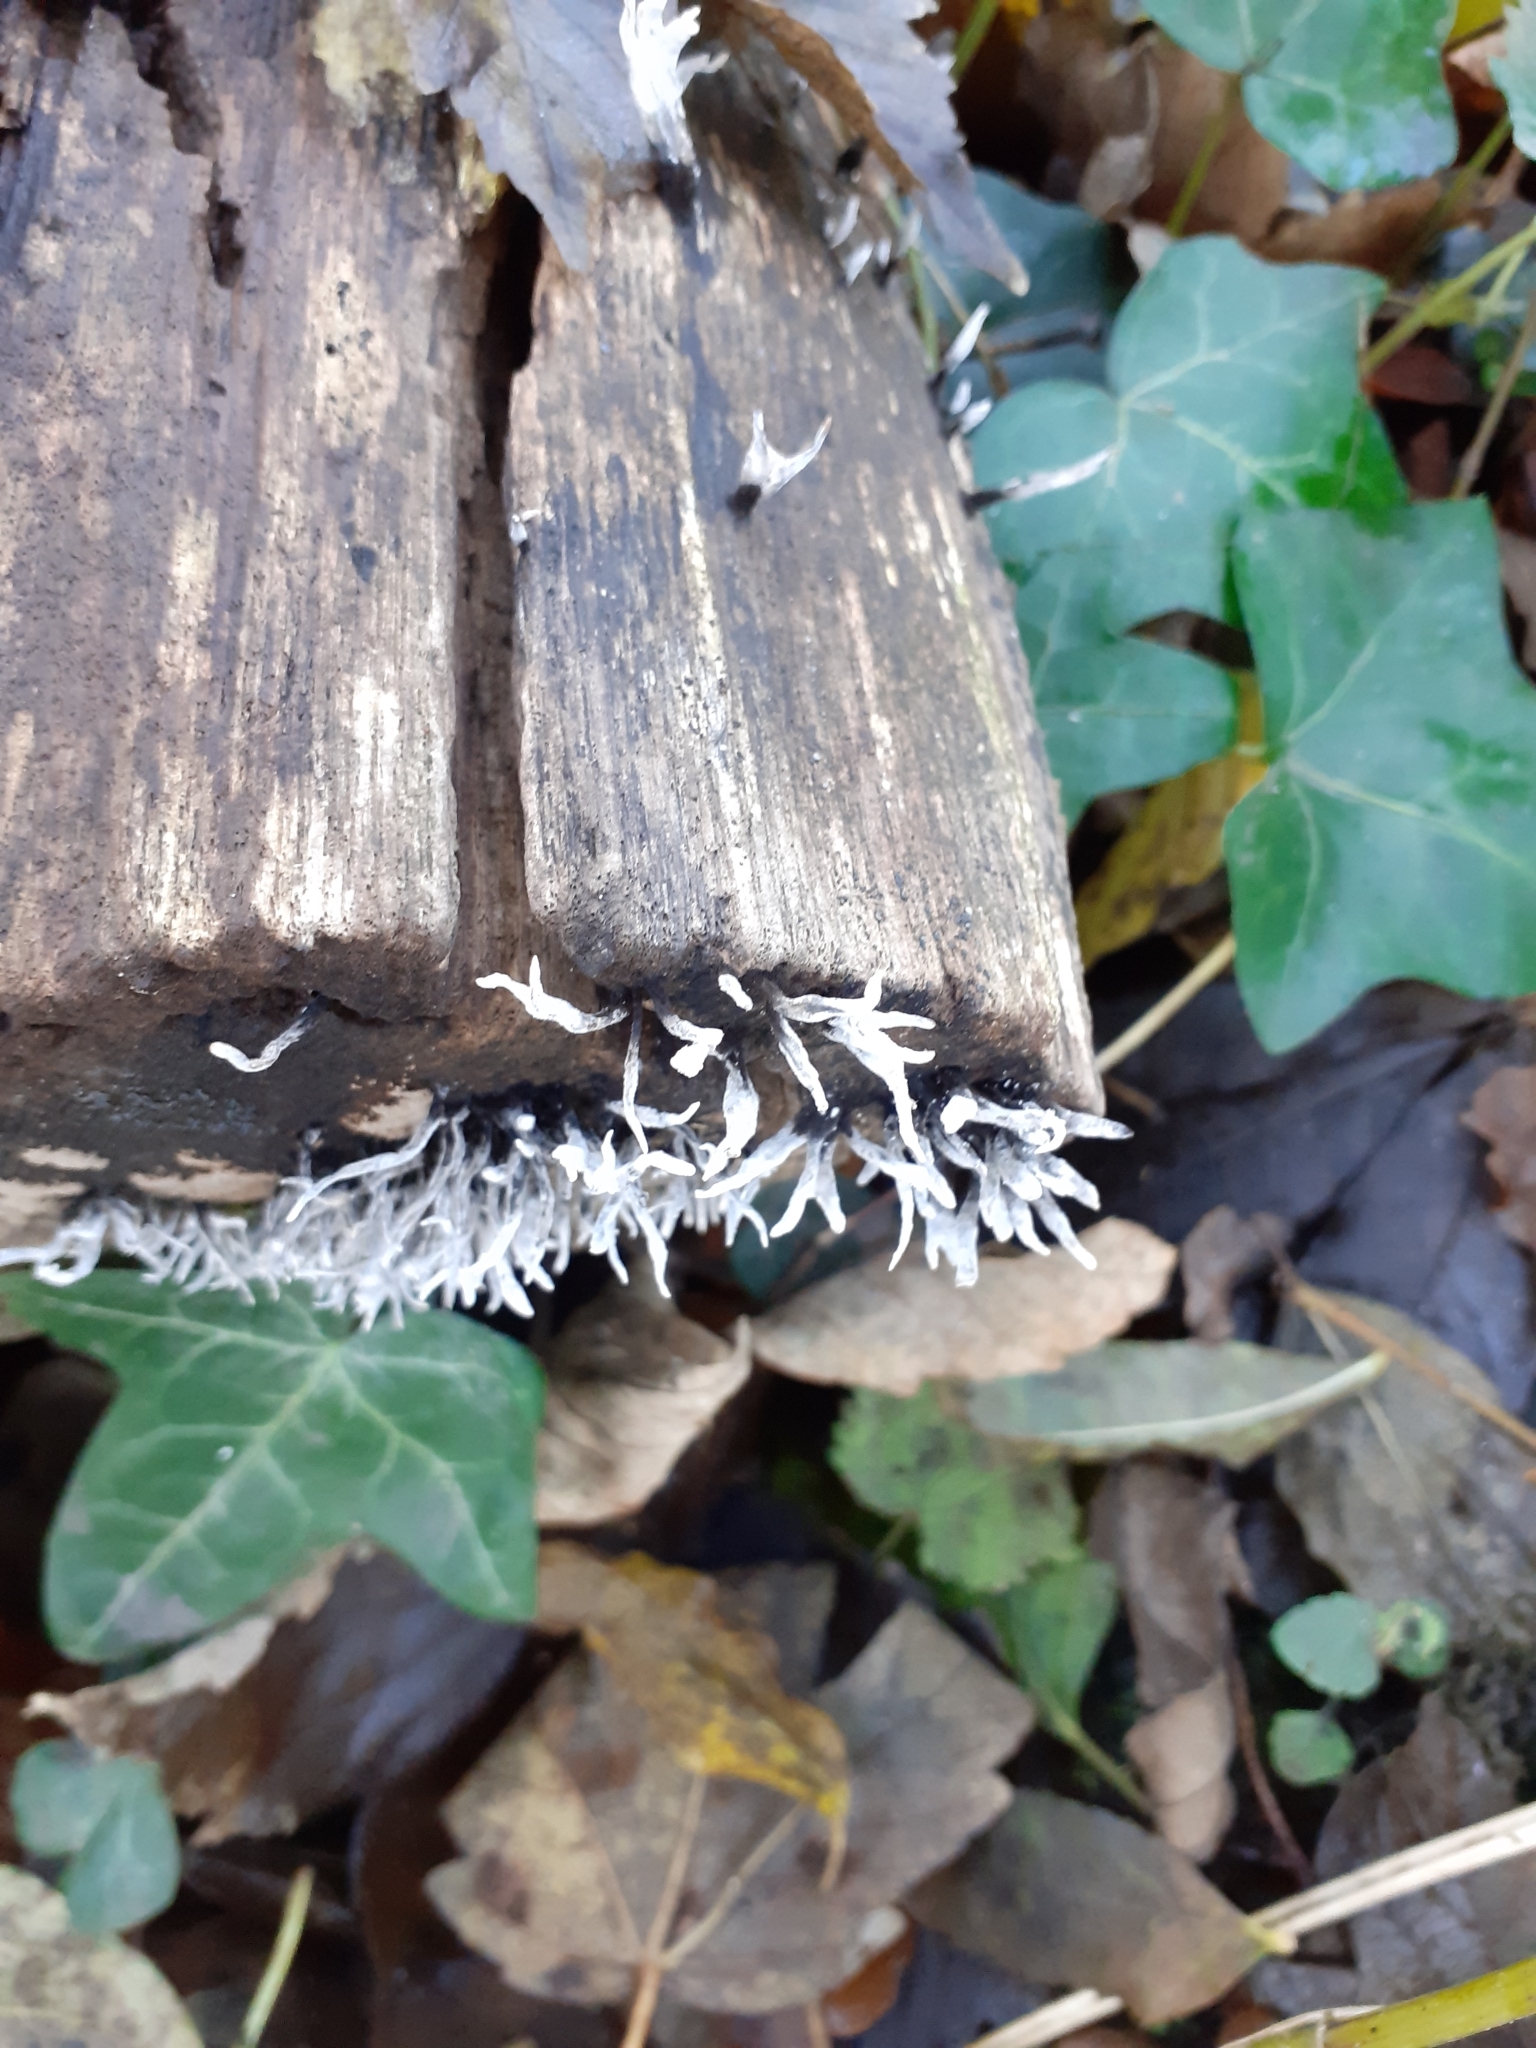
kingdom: Fungi
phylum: Ascomycota
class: Sordariomycetes
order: Xylariales
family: Xylariaceae
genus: Xylaria
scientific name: Xylaria hypoxylon
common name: Candle-snuff fungus
